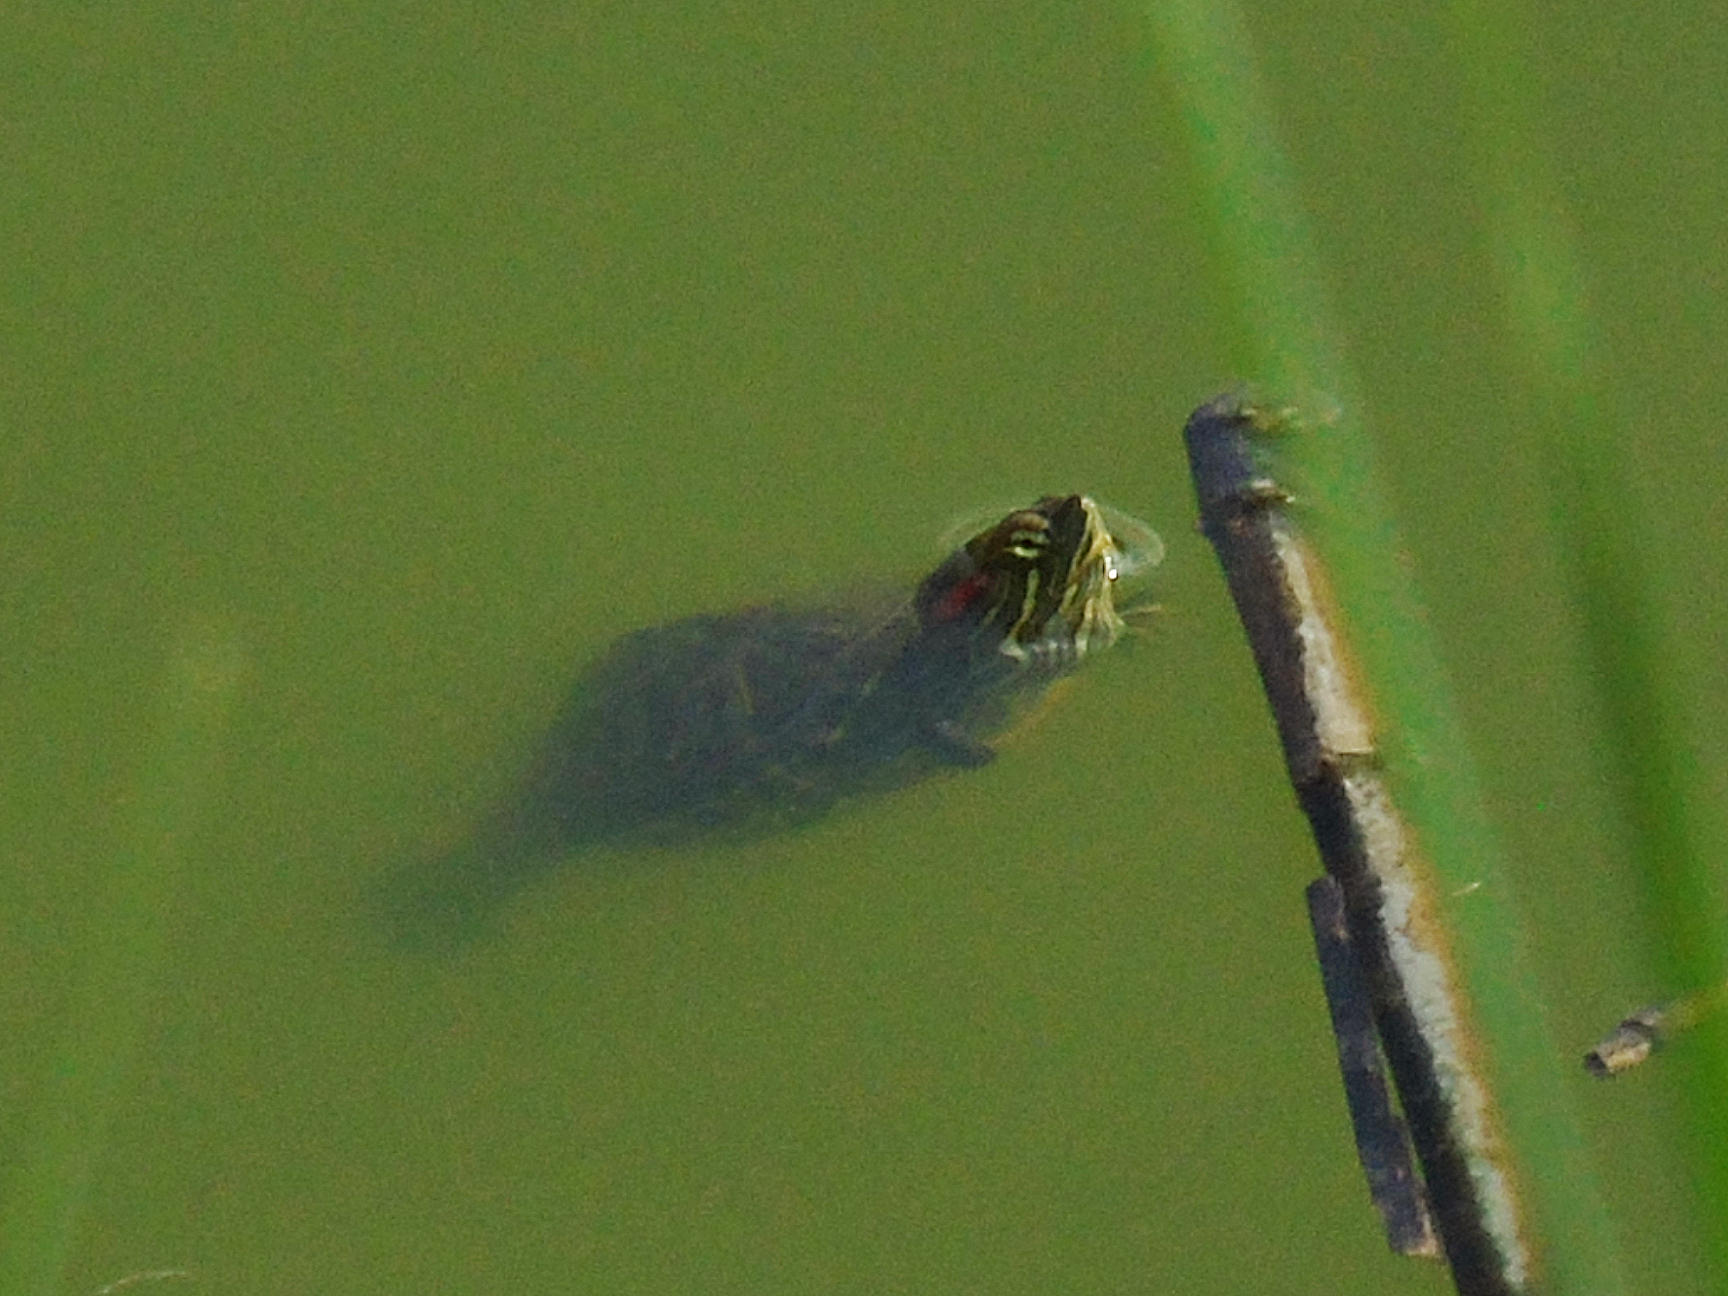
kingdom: Animalia
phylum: Chordata
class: Testudines
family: Emydidae
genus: Trachemys
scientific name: Trachemys scripta
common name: Slider
